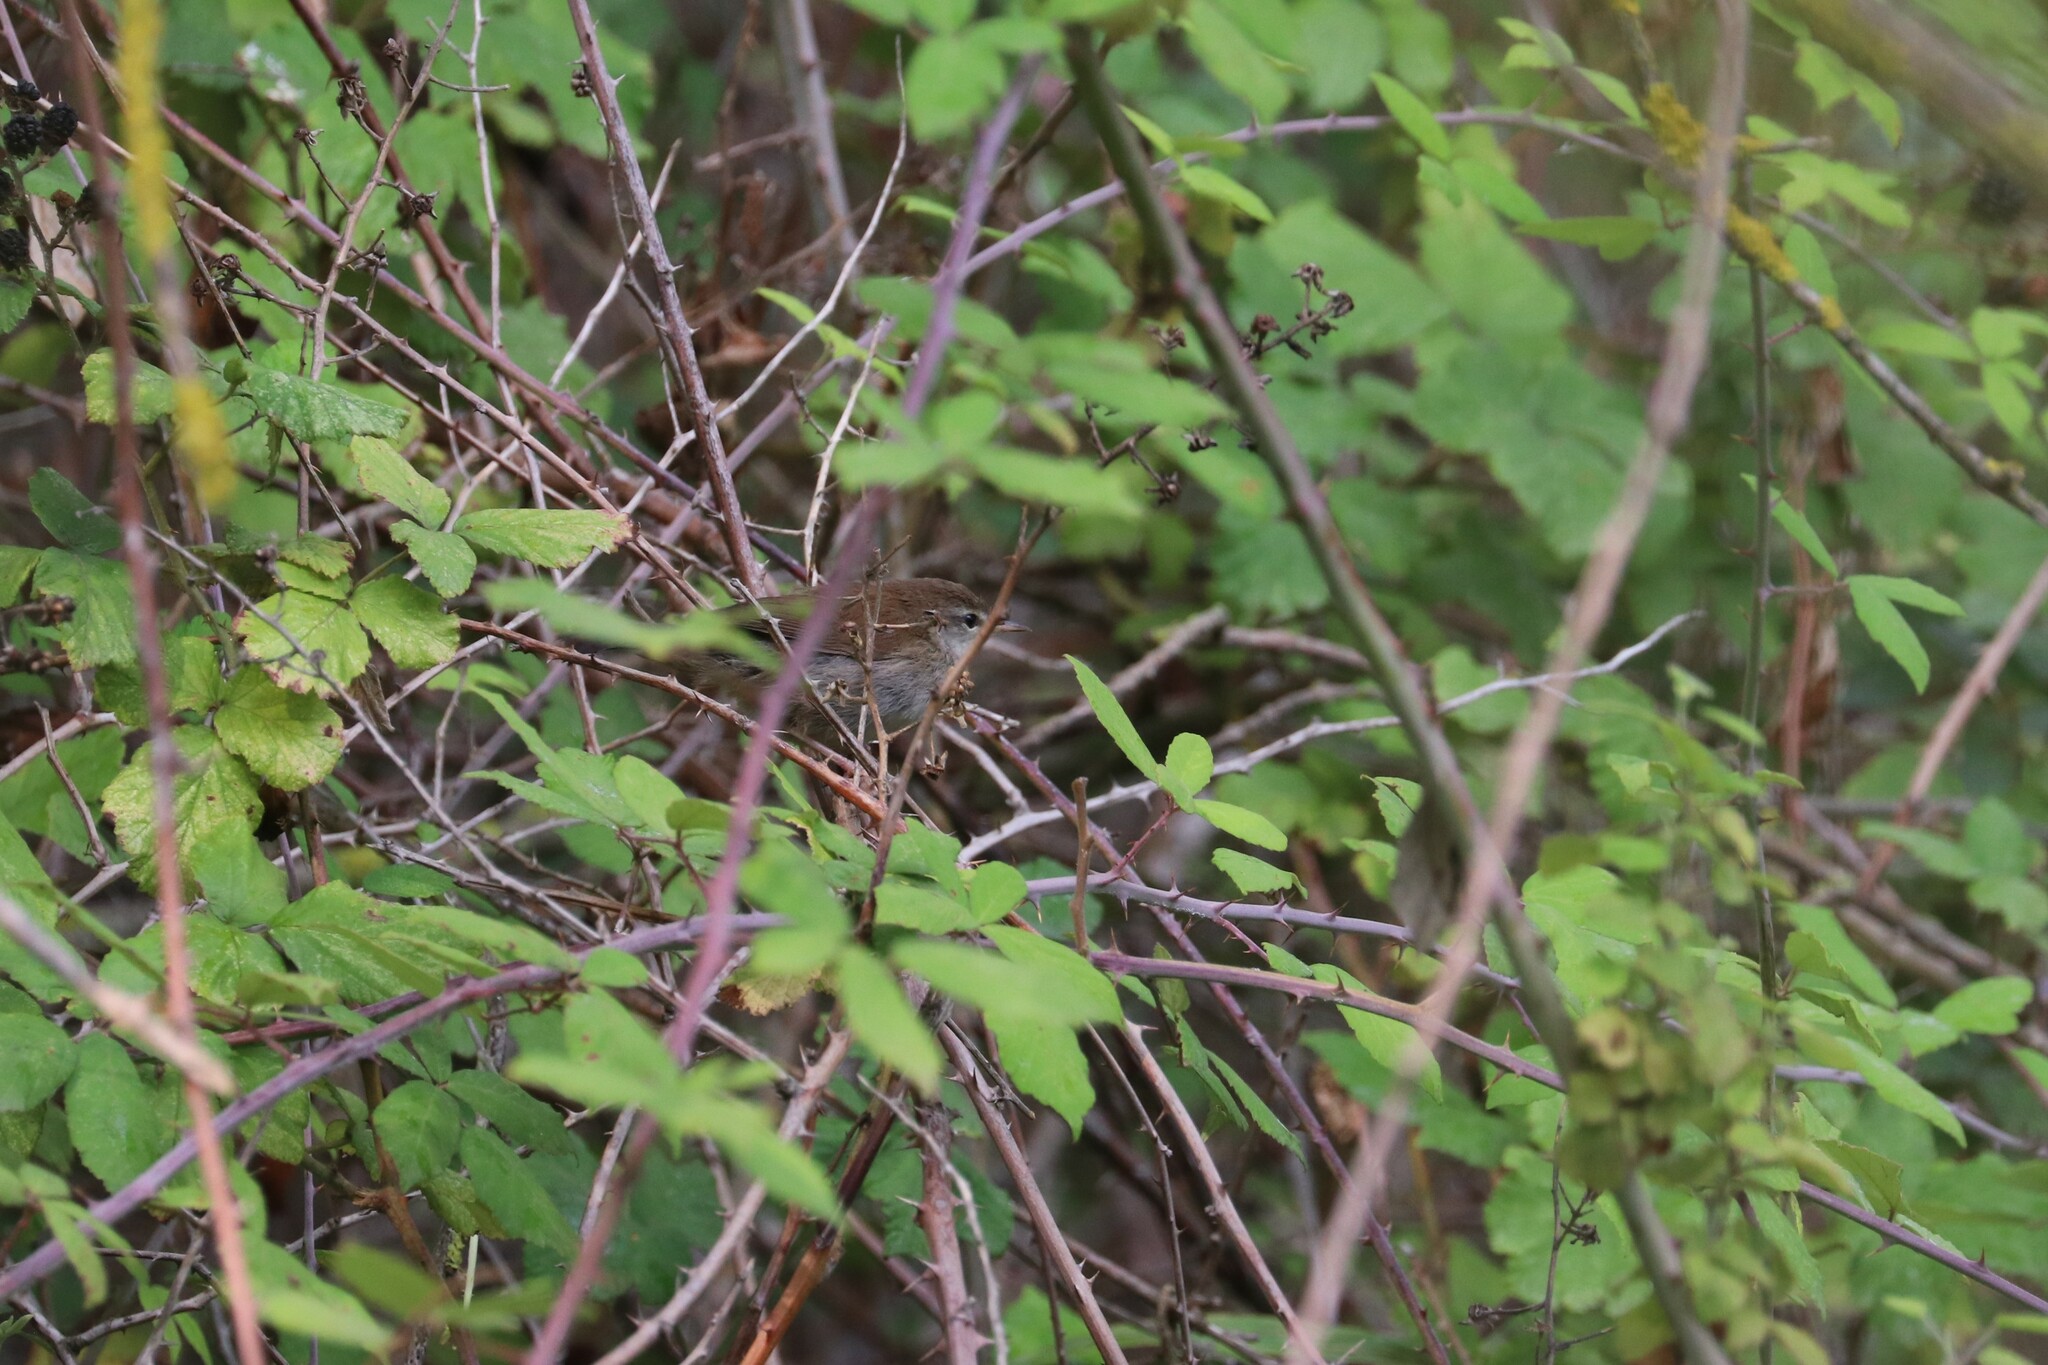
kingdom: Animalia
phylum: Chordata
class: Aves
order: Passeriformes
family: Cettiidae
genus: Cettia
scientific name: Cettia cetti
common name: Cetti's warbler
